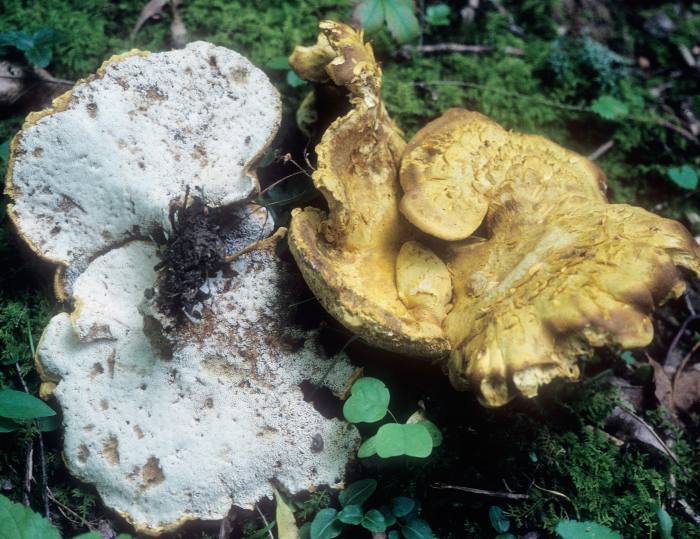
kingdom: Fungi
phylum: Basidiomycota
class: Agaricomycetes
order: Russulales
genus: Laeticutis
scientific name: Laeticutis cristata
